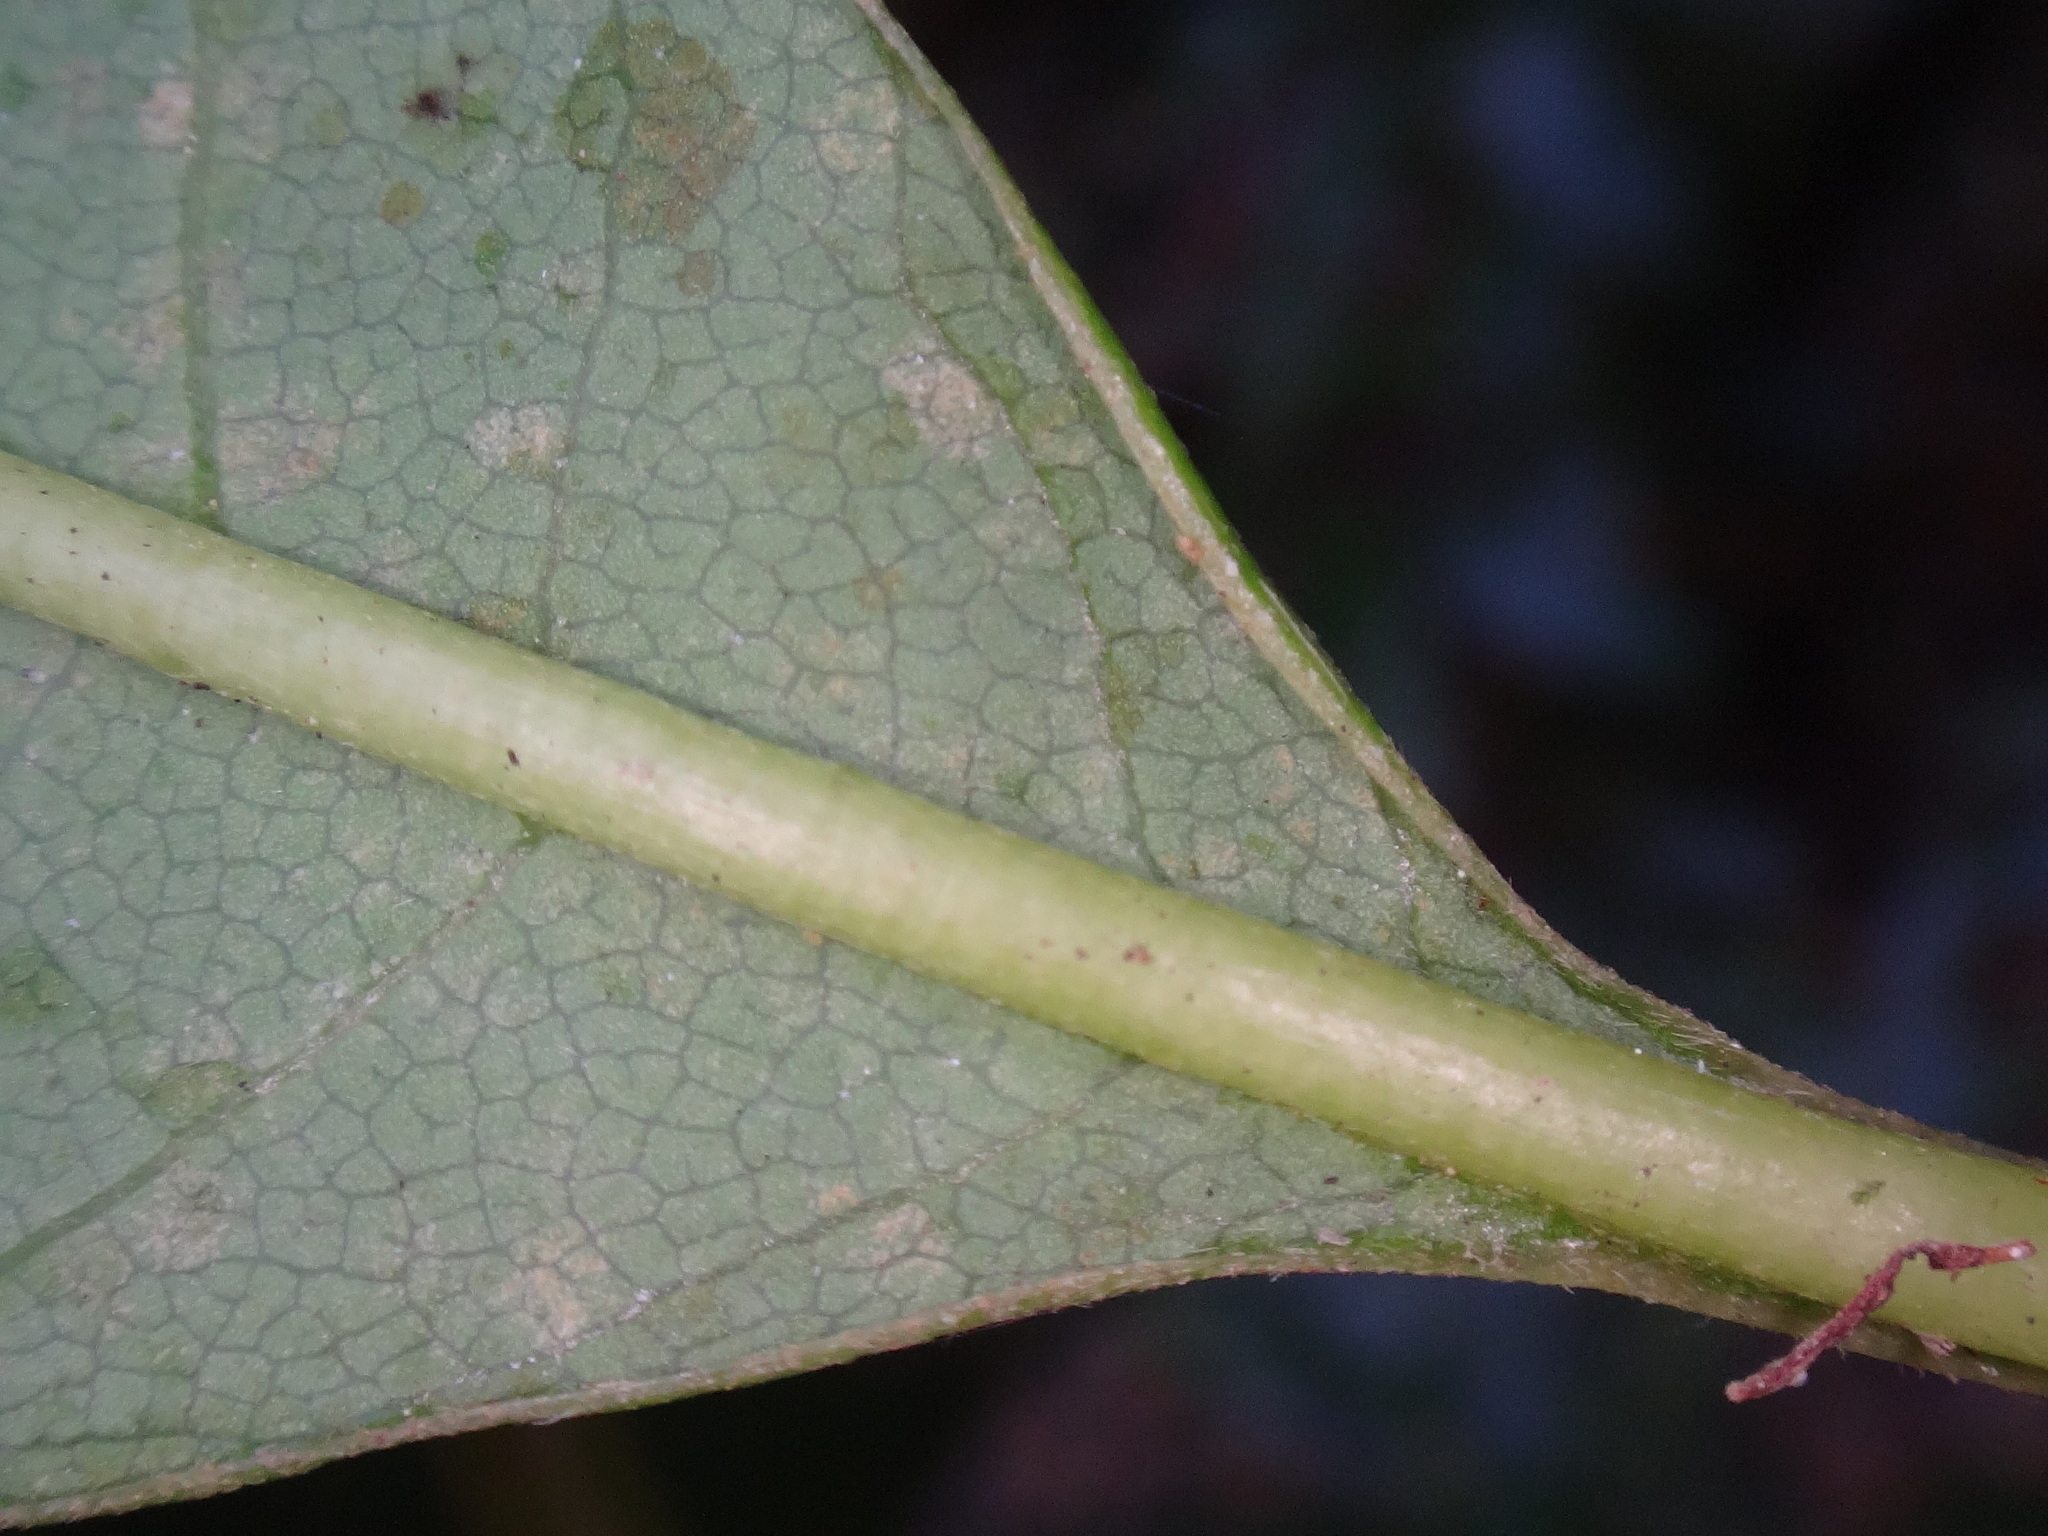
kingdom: Plantae
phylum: Tracheophyta
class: Magnoliopsida
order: Laurales
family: Lauraceae
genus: Persea
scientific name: Persea indica
